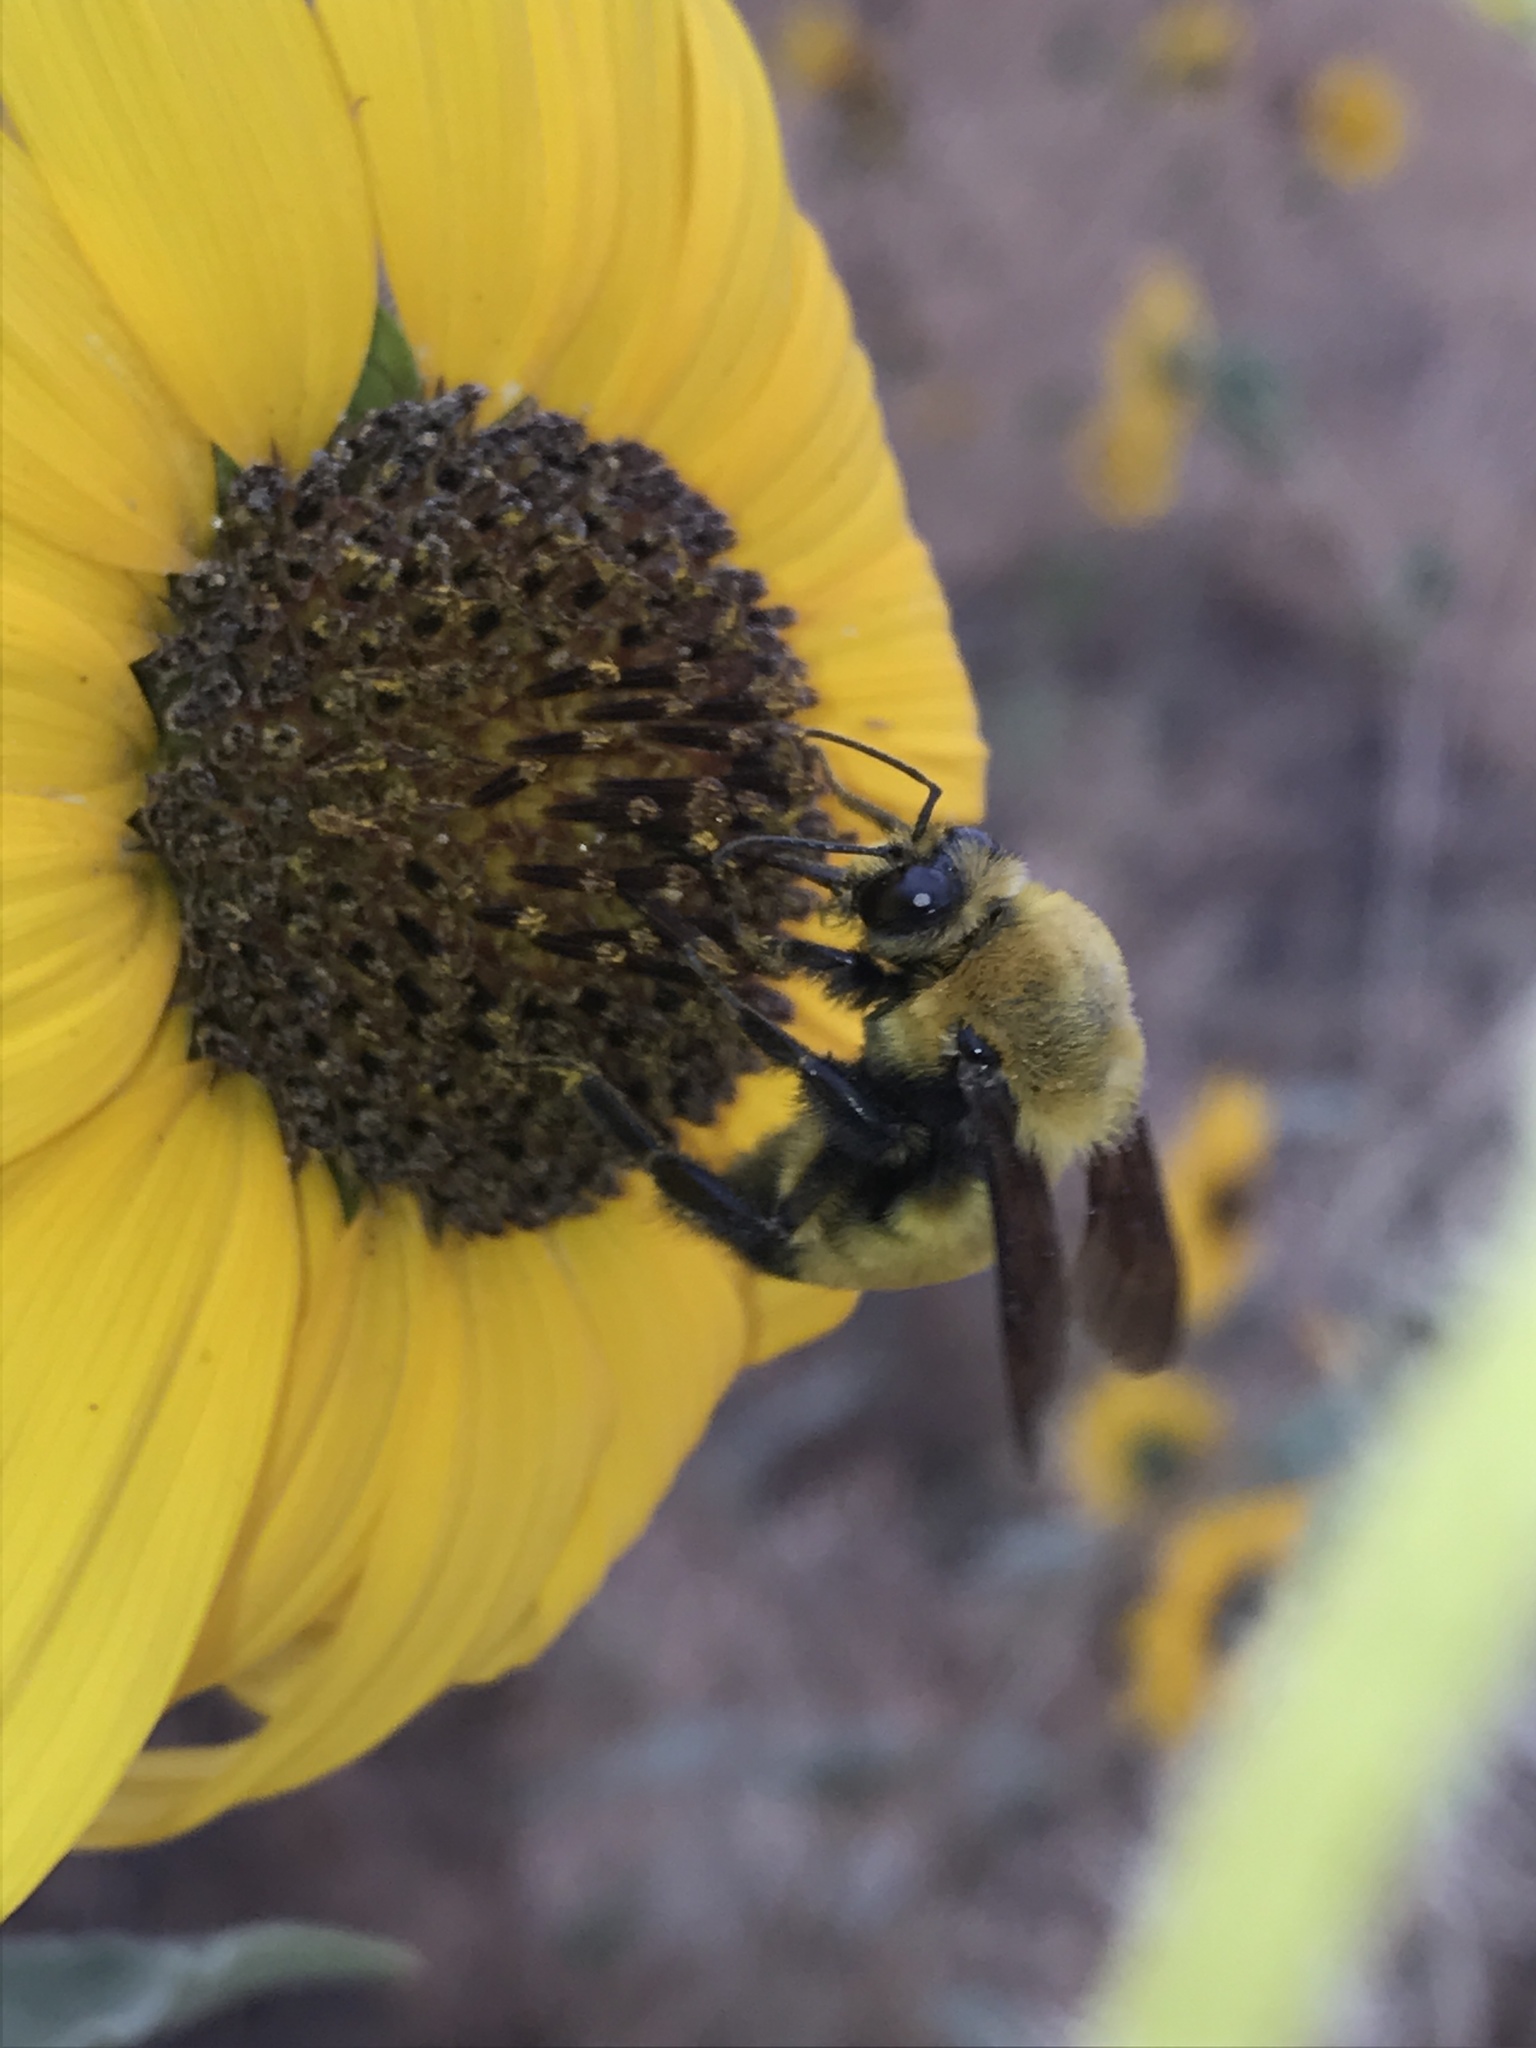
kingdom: Animalia
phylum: Arthropoda
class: Insecta
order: Hymenoptera
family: Apidae
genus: Bombus
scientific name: Bombus morrisoni
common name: Morrison bumble bee
